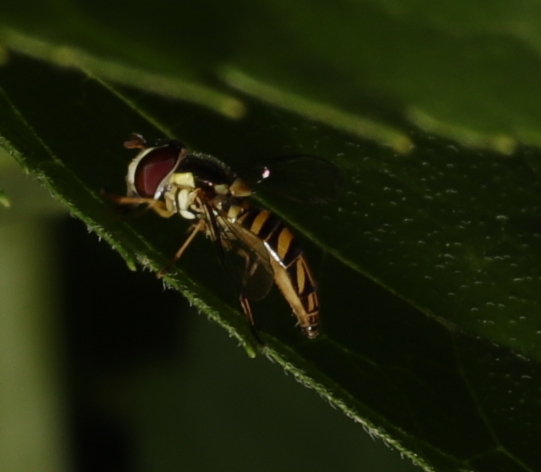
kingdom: Animalia
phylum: Arthropoda
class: Insecta
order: Diptera
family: Syrphidae
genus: Allograpta
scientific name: Allograpta obliqua
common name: Common oblique syrphid
